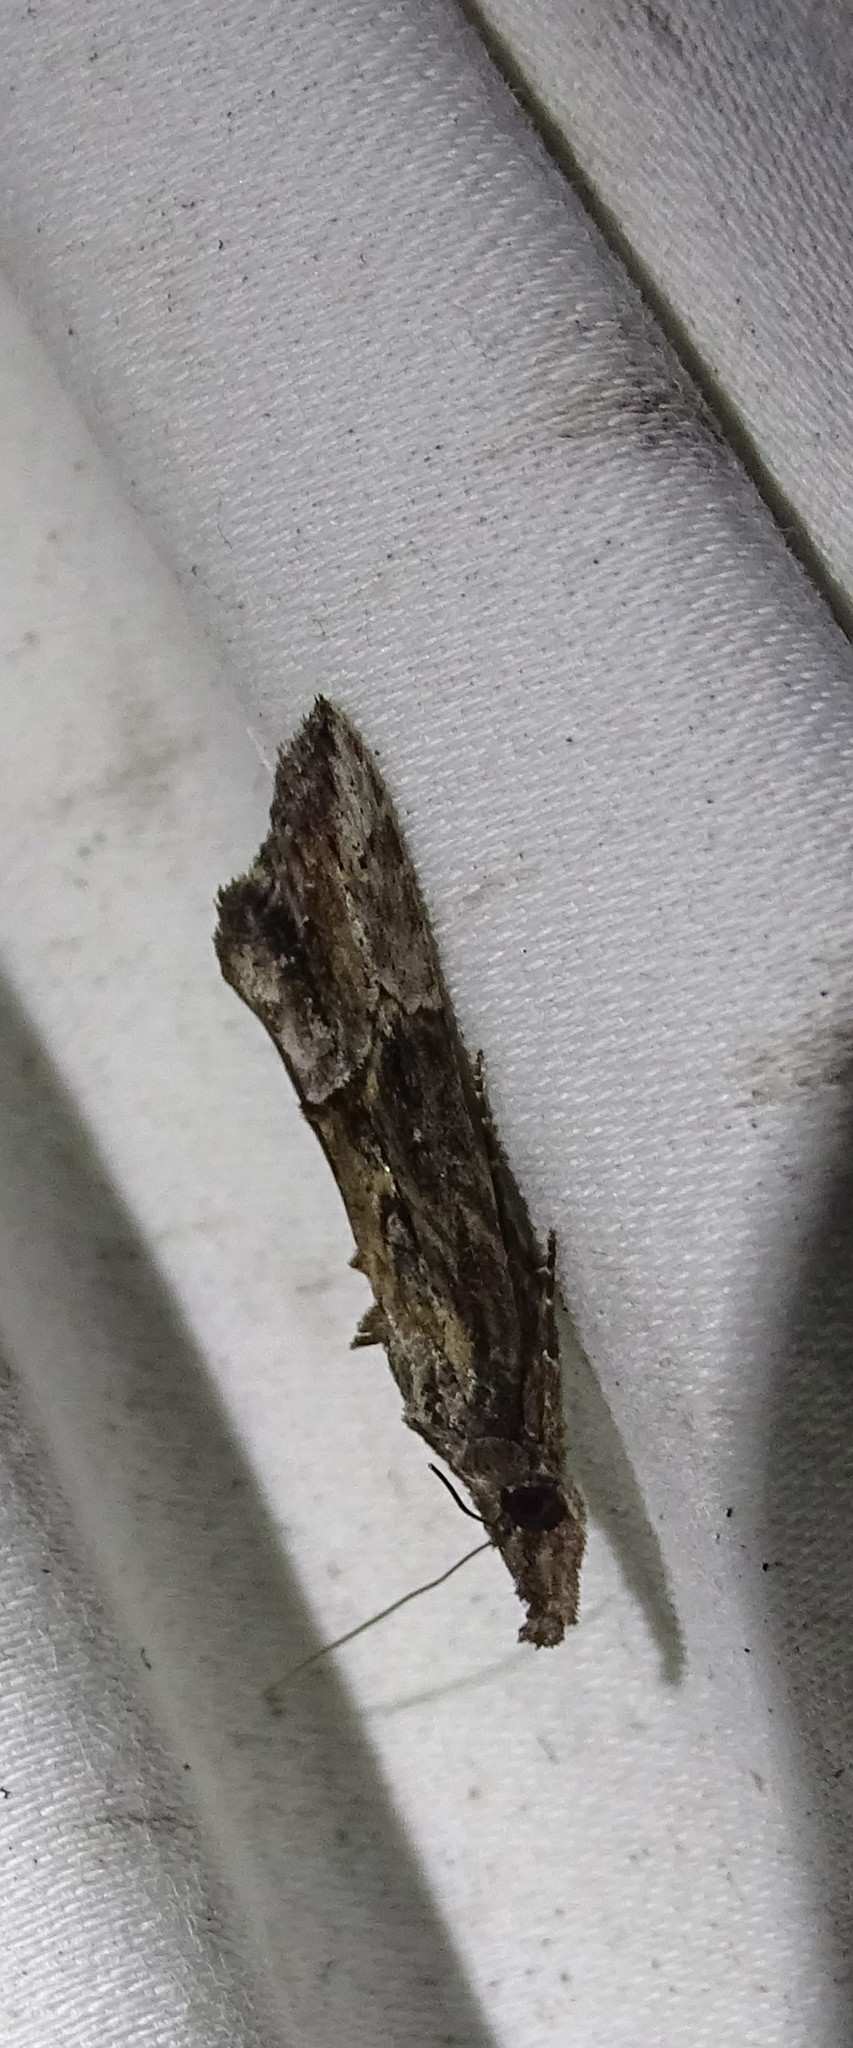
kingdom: Animalia
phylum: Arthropoda
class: Insecta
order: Lepidoptera
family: Erebidae
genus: Hypena
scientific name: Hypena scabra
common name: Green cloverworm
